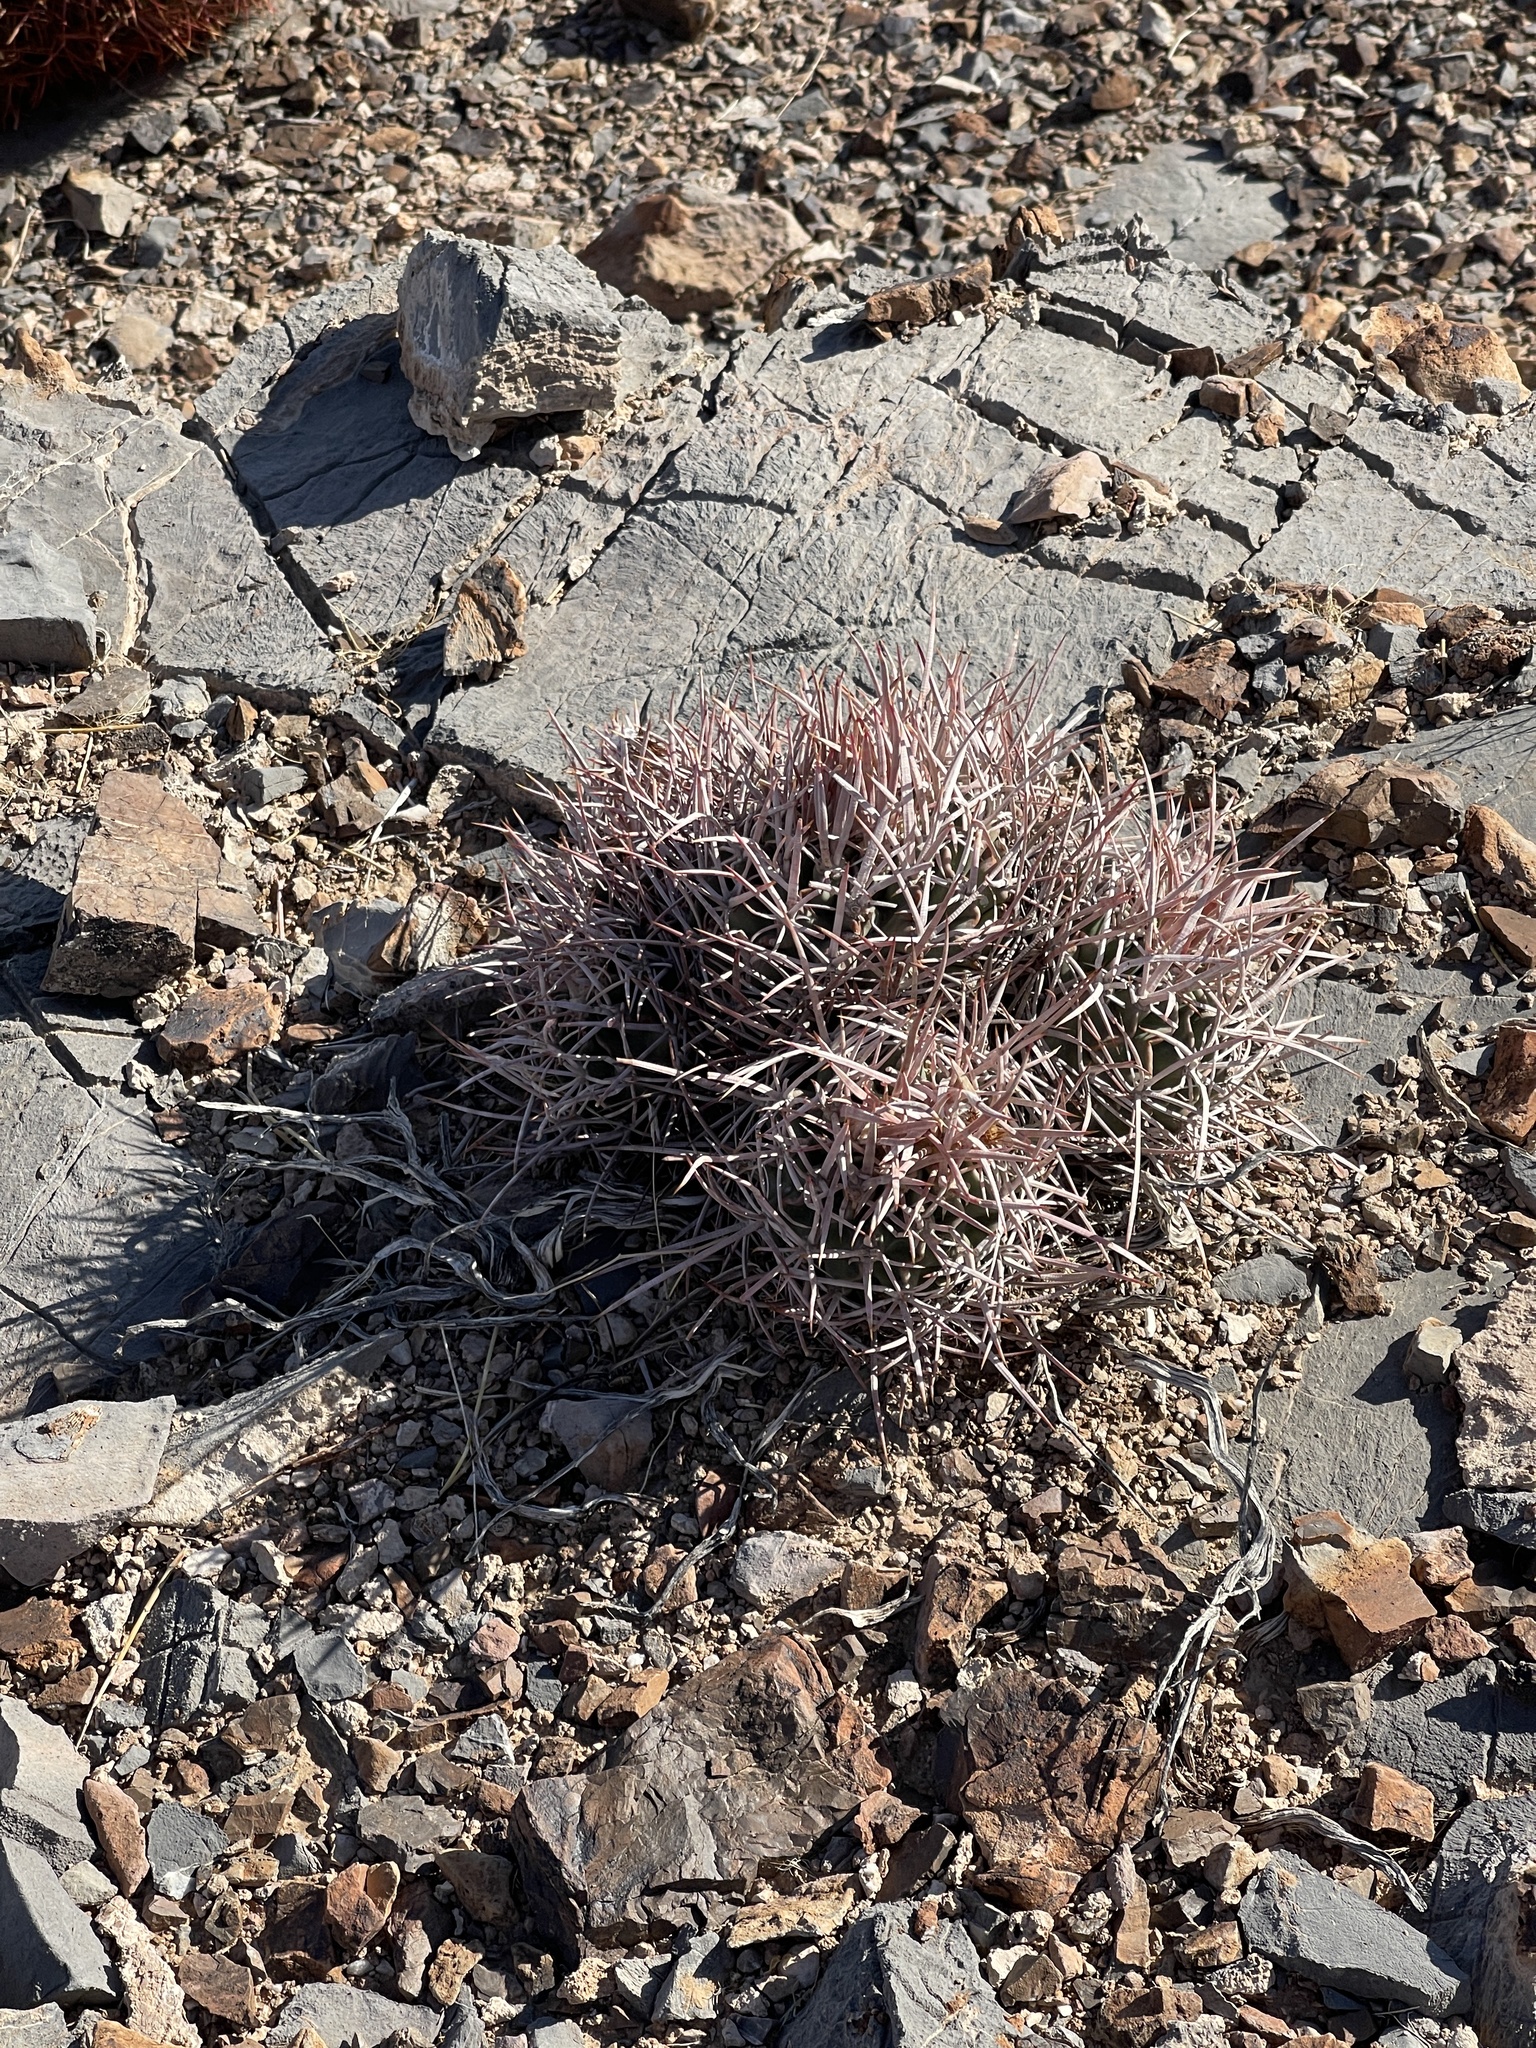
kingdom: Plantae
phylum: Tracheophyta
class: Magnoliopsida
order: Caryophyllales
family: Cactaceae
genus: Echinocactus
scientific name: Echinocactus polycephalus
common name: Cottontop cactus
